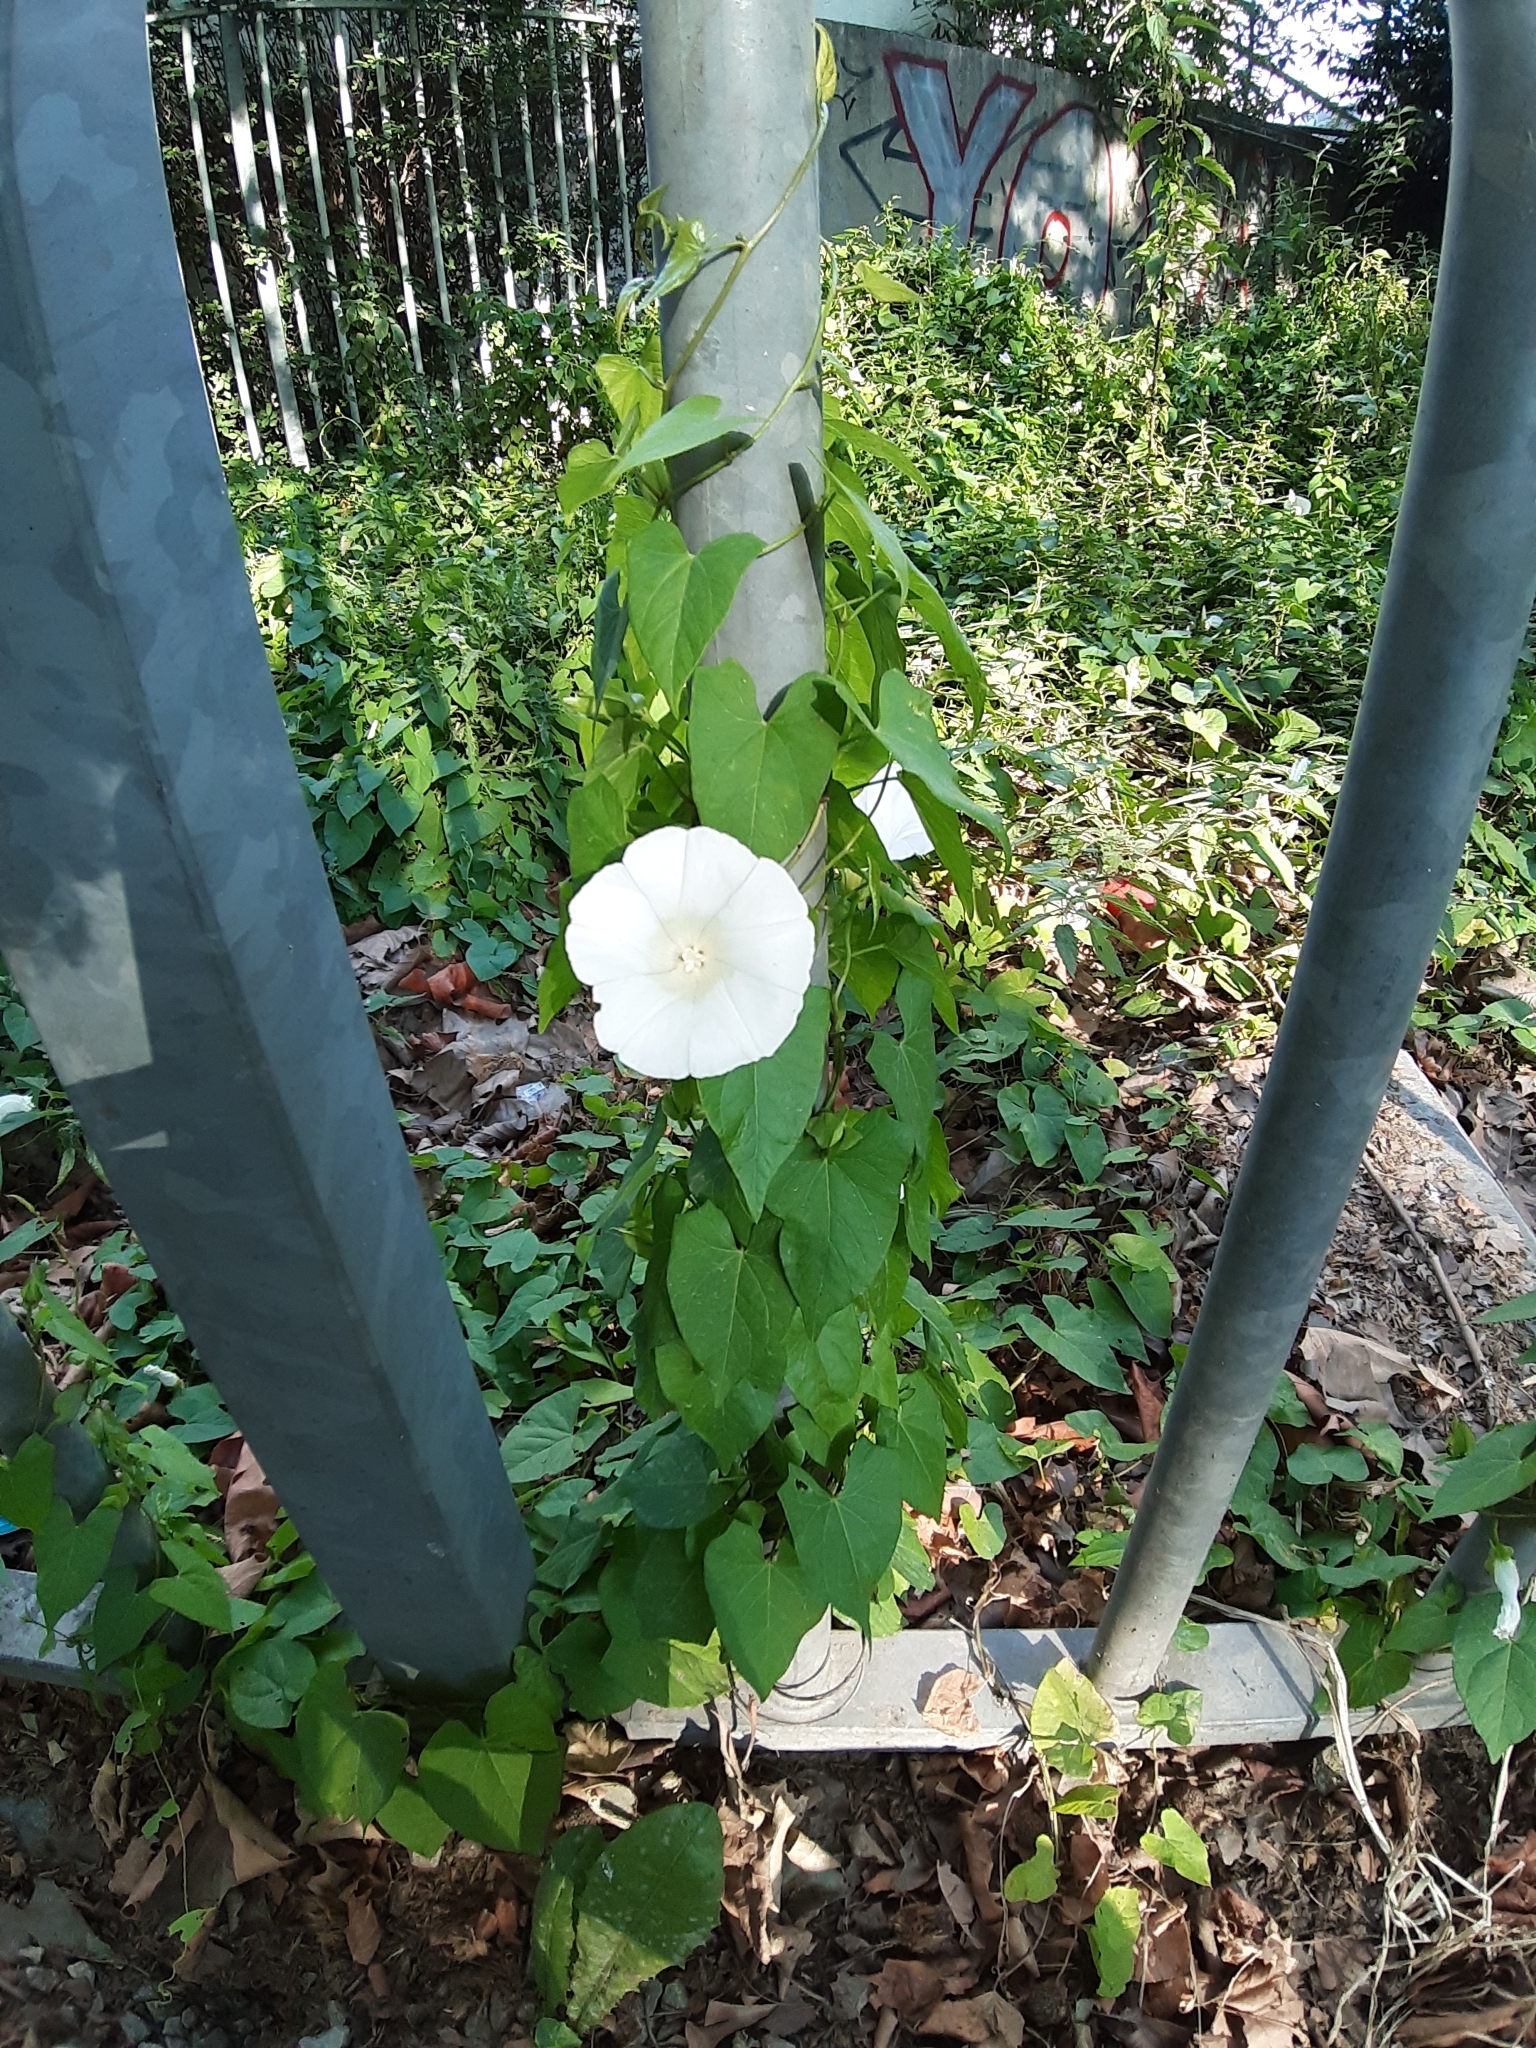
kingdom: Plantae
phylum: Tracheophyta
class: Magnoliopsida
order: Solanales
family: Convolvulaceae
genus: Calystegia
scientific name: Calystegia sepium
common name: Hedge bindweed
